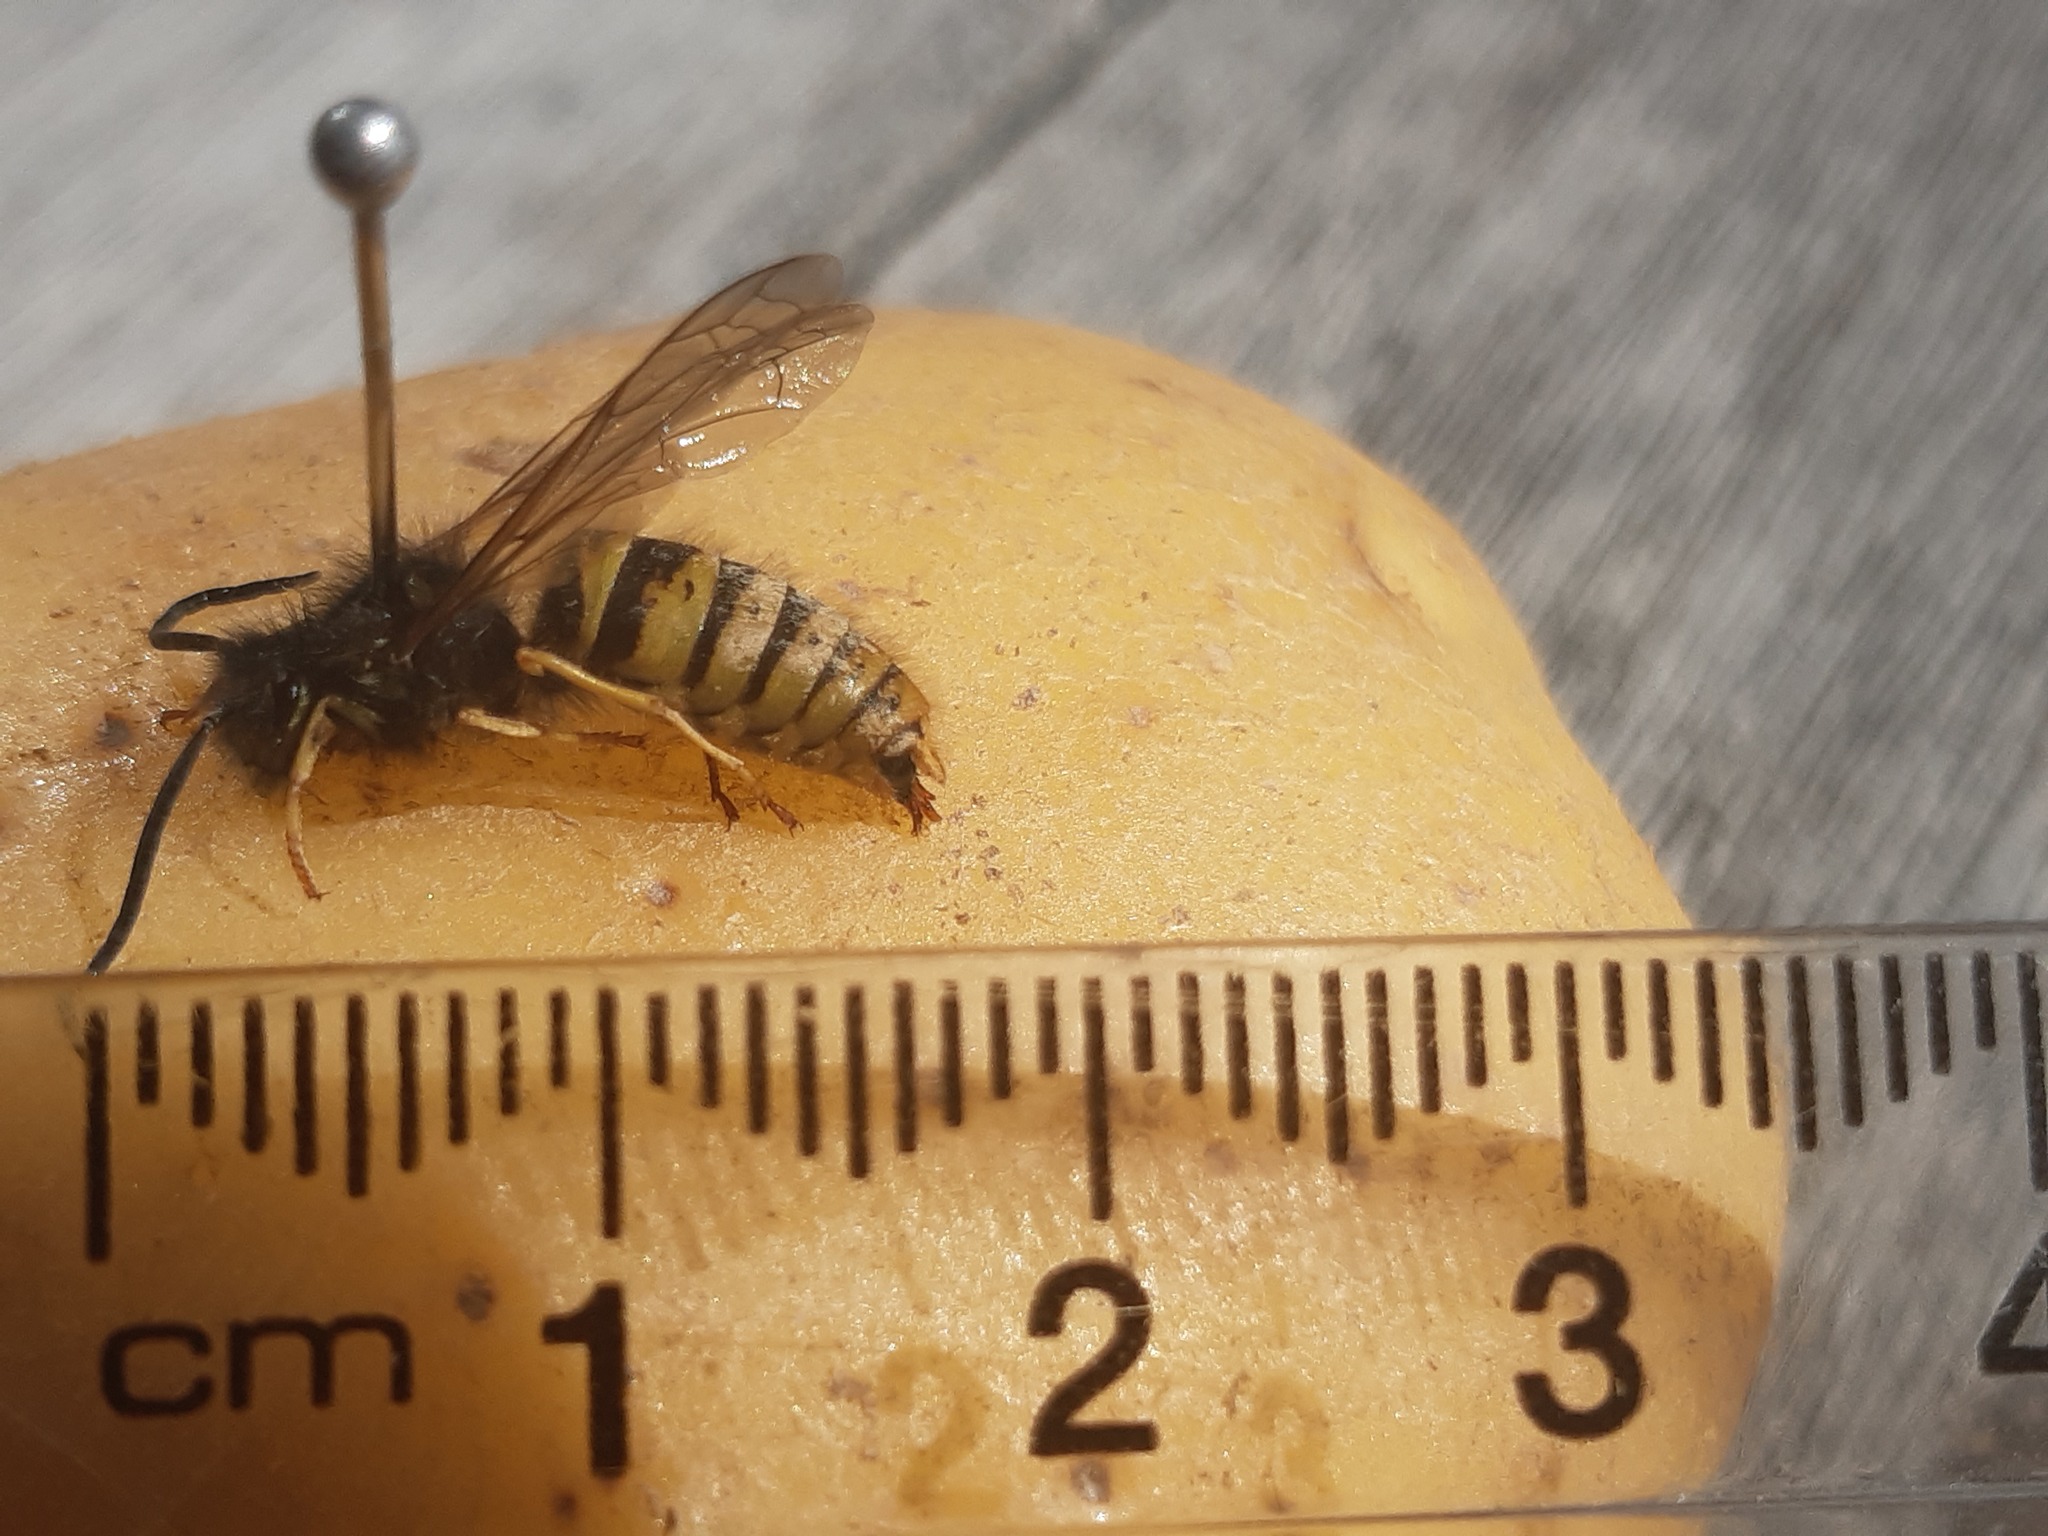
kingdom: Animalia
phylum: Arthropoda
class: Insecta
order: Hymenoptera
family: Vespidae
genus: Vespula
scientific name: Vespula vulgaris
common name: Common wasp
